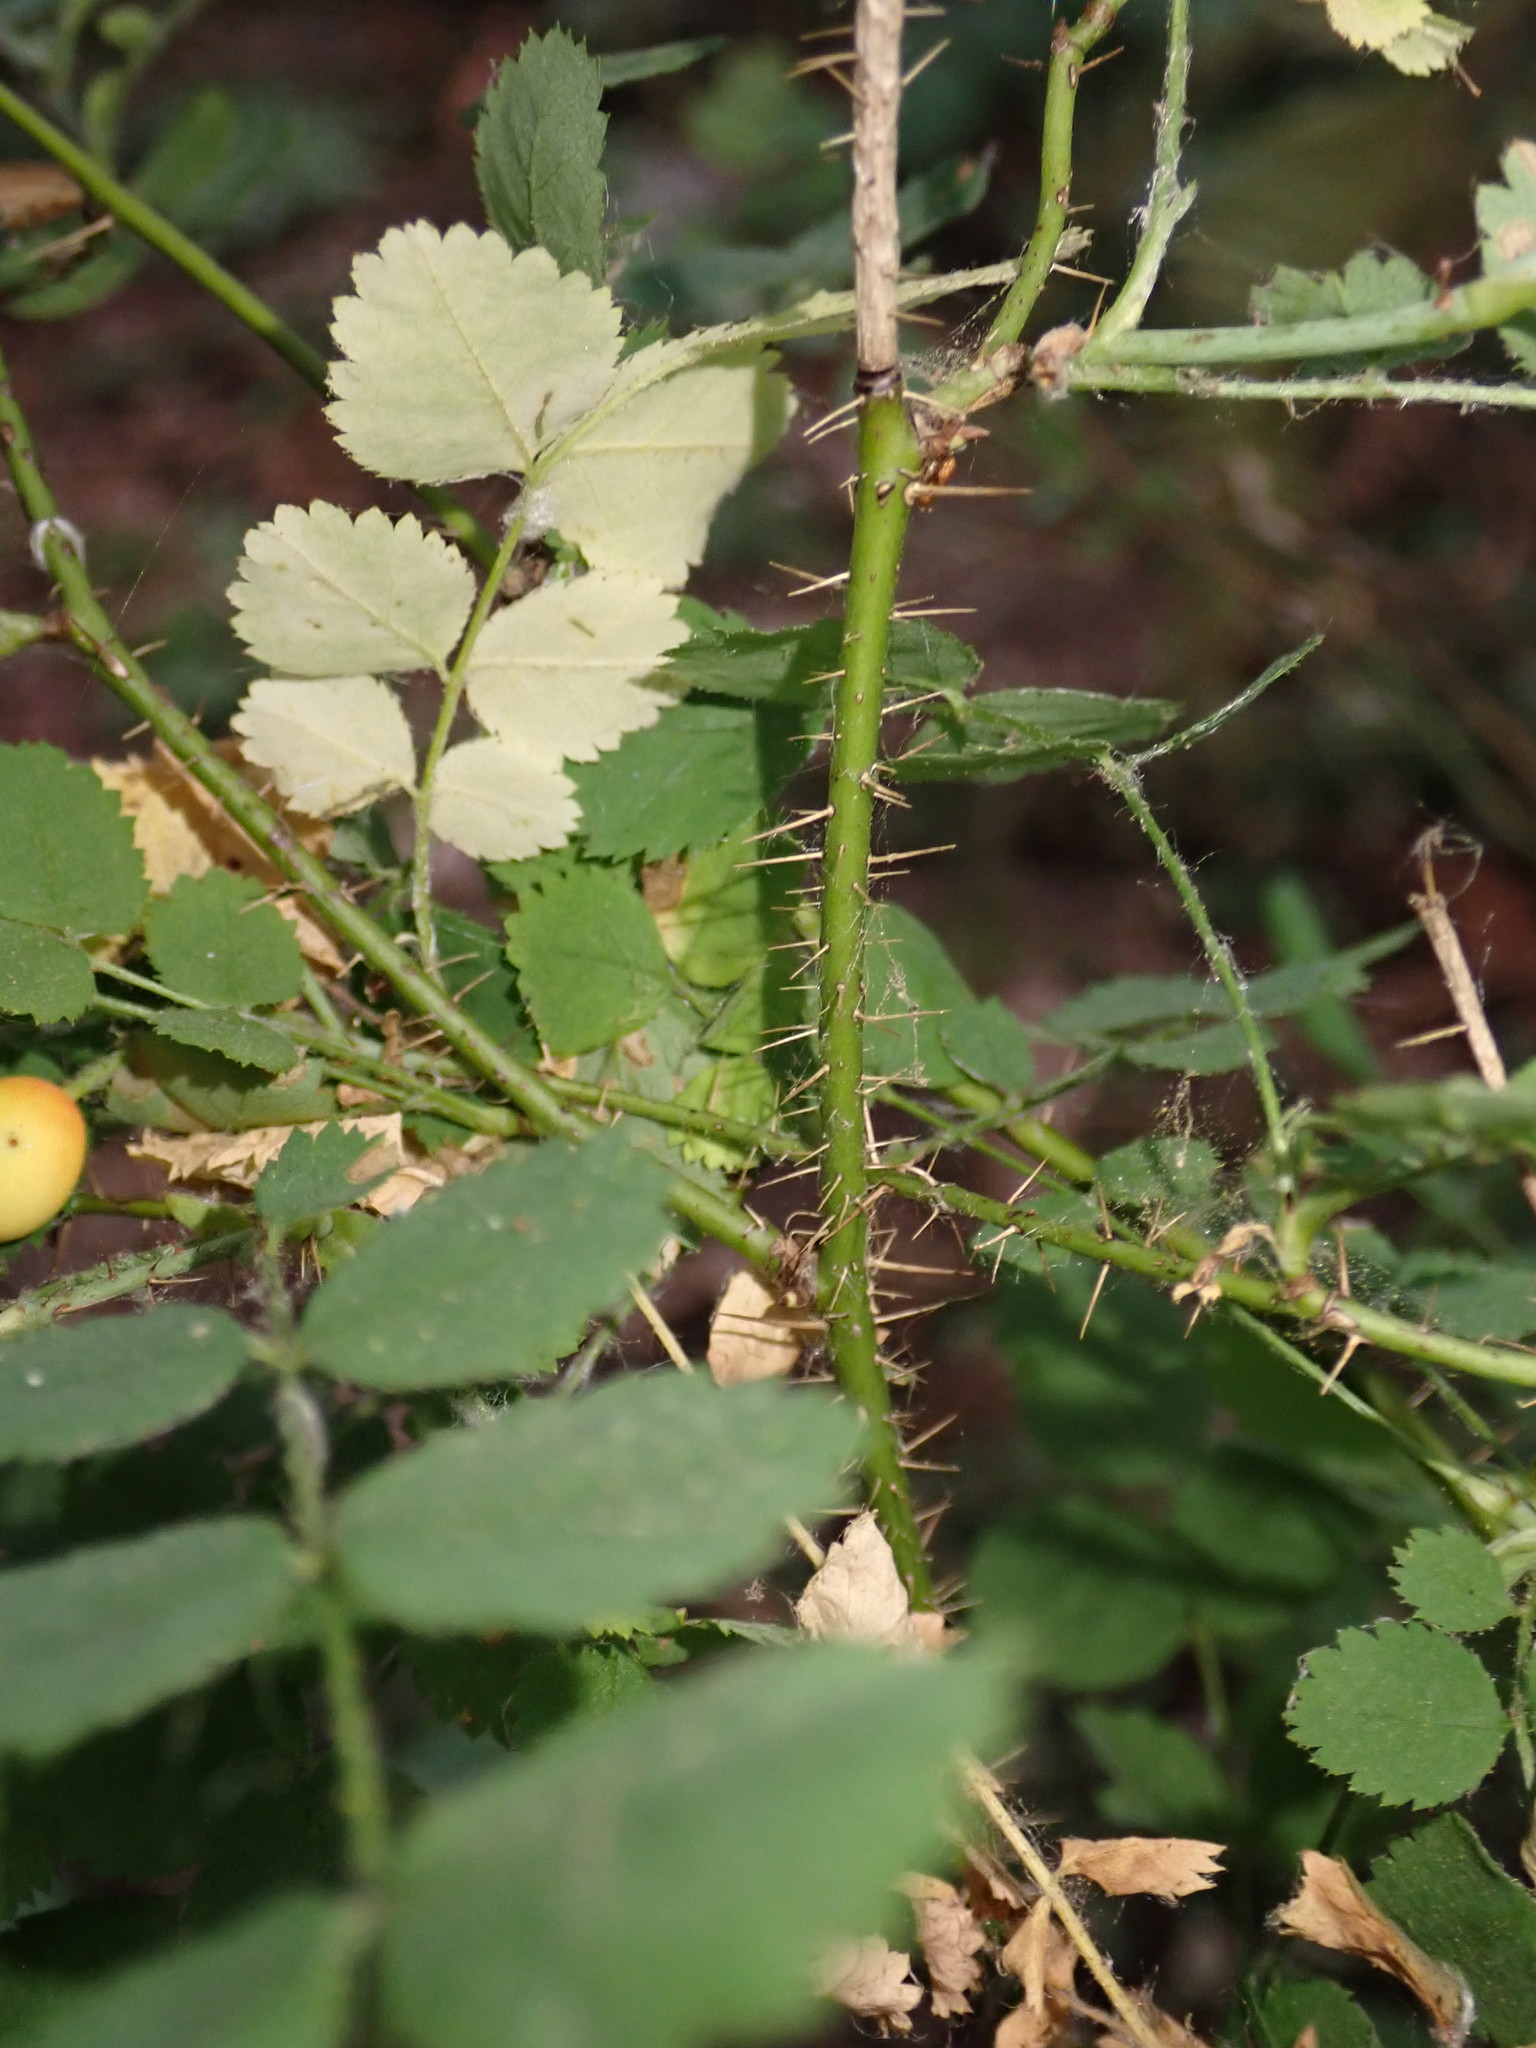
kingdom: Plantae
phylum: Tracheophyta
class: Magnoliopsida
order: Rosales
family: Rosaceae
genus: Rosa
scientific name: Rosa gymnocarpa
